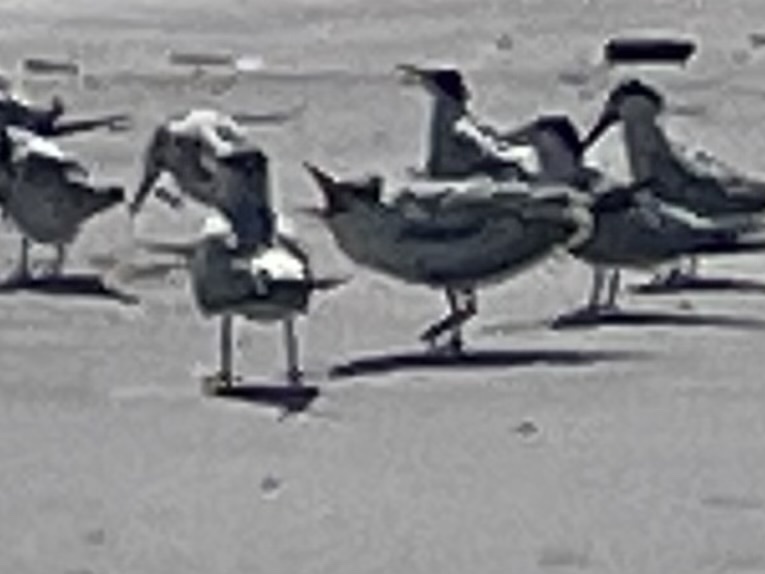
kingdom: Animalia
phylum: Chordata
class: Aves
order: Charadriiformes
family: Laridae
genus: Thalasseus
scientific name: Thalasseus maximus
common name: Royal tern
